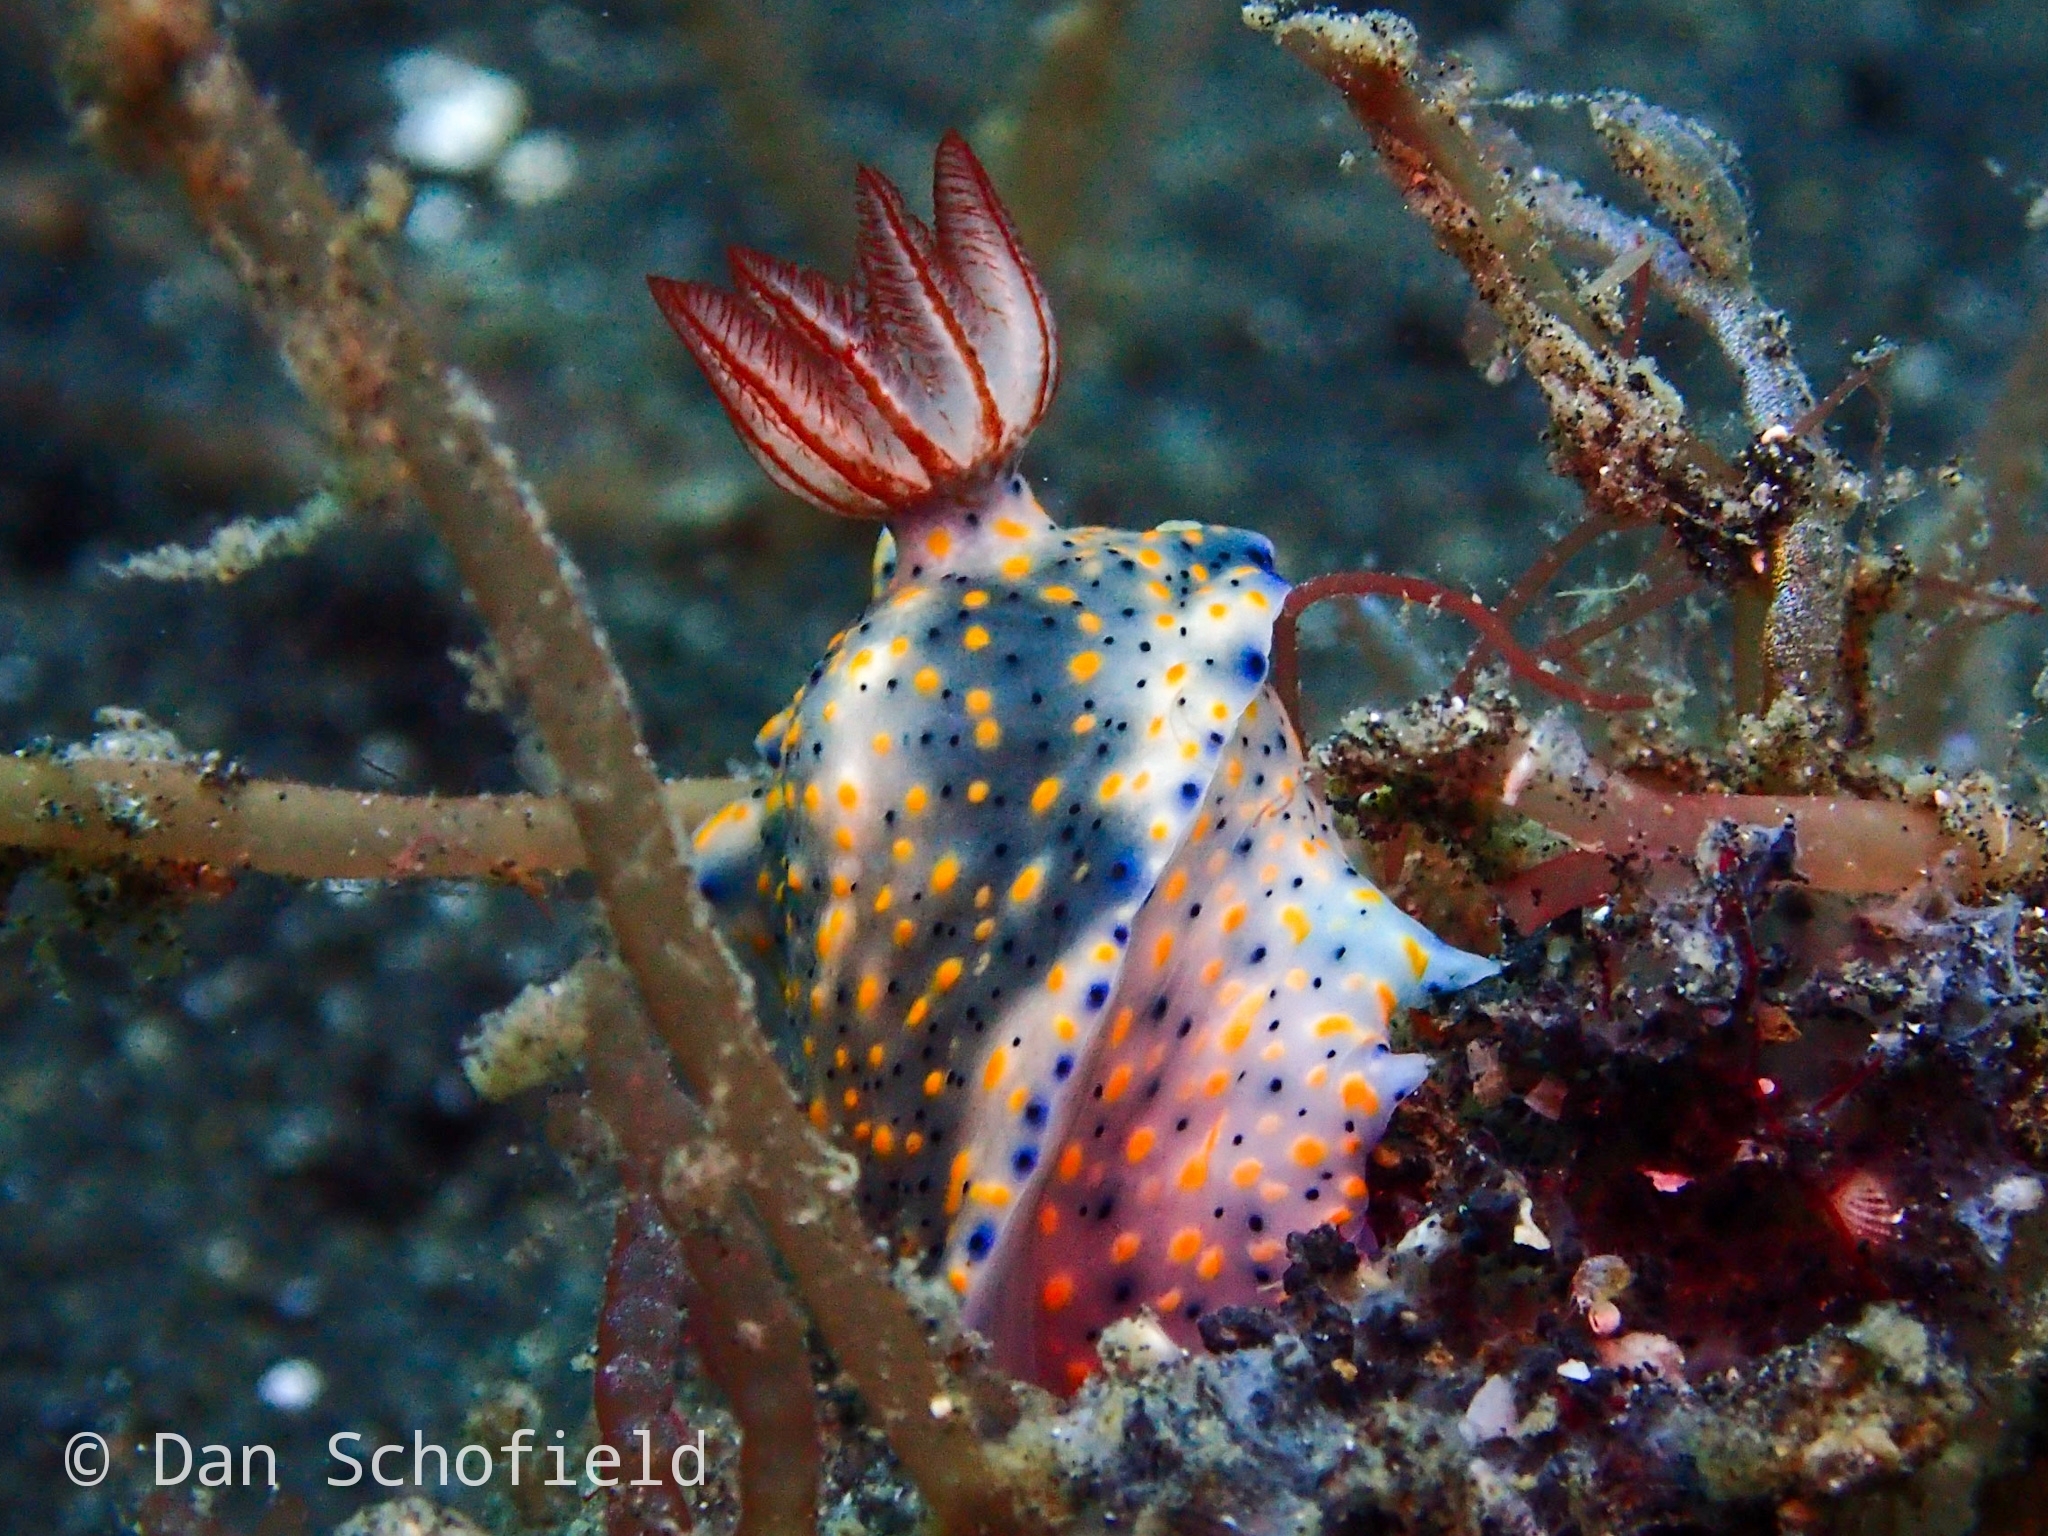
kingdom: Animalia
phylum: Mollusca
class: Gastropoda
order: Nudibranchia
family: Chromodorididae
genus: Hypselodoris
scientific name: Hypselodoris infucata
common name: Mottled dorid
